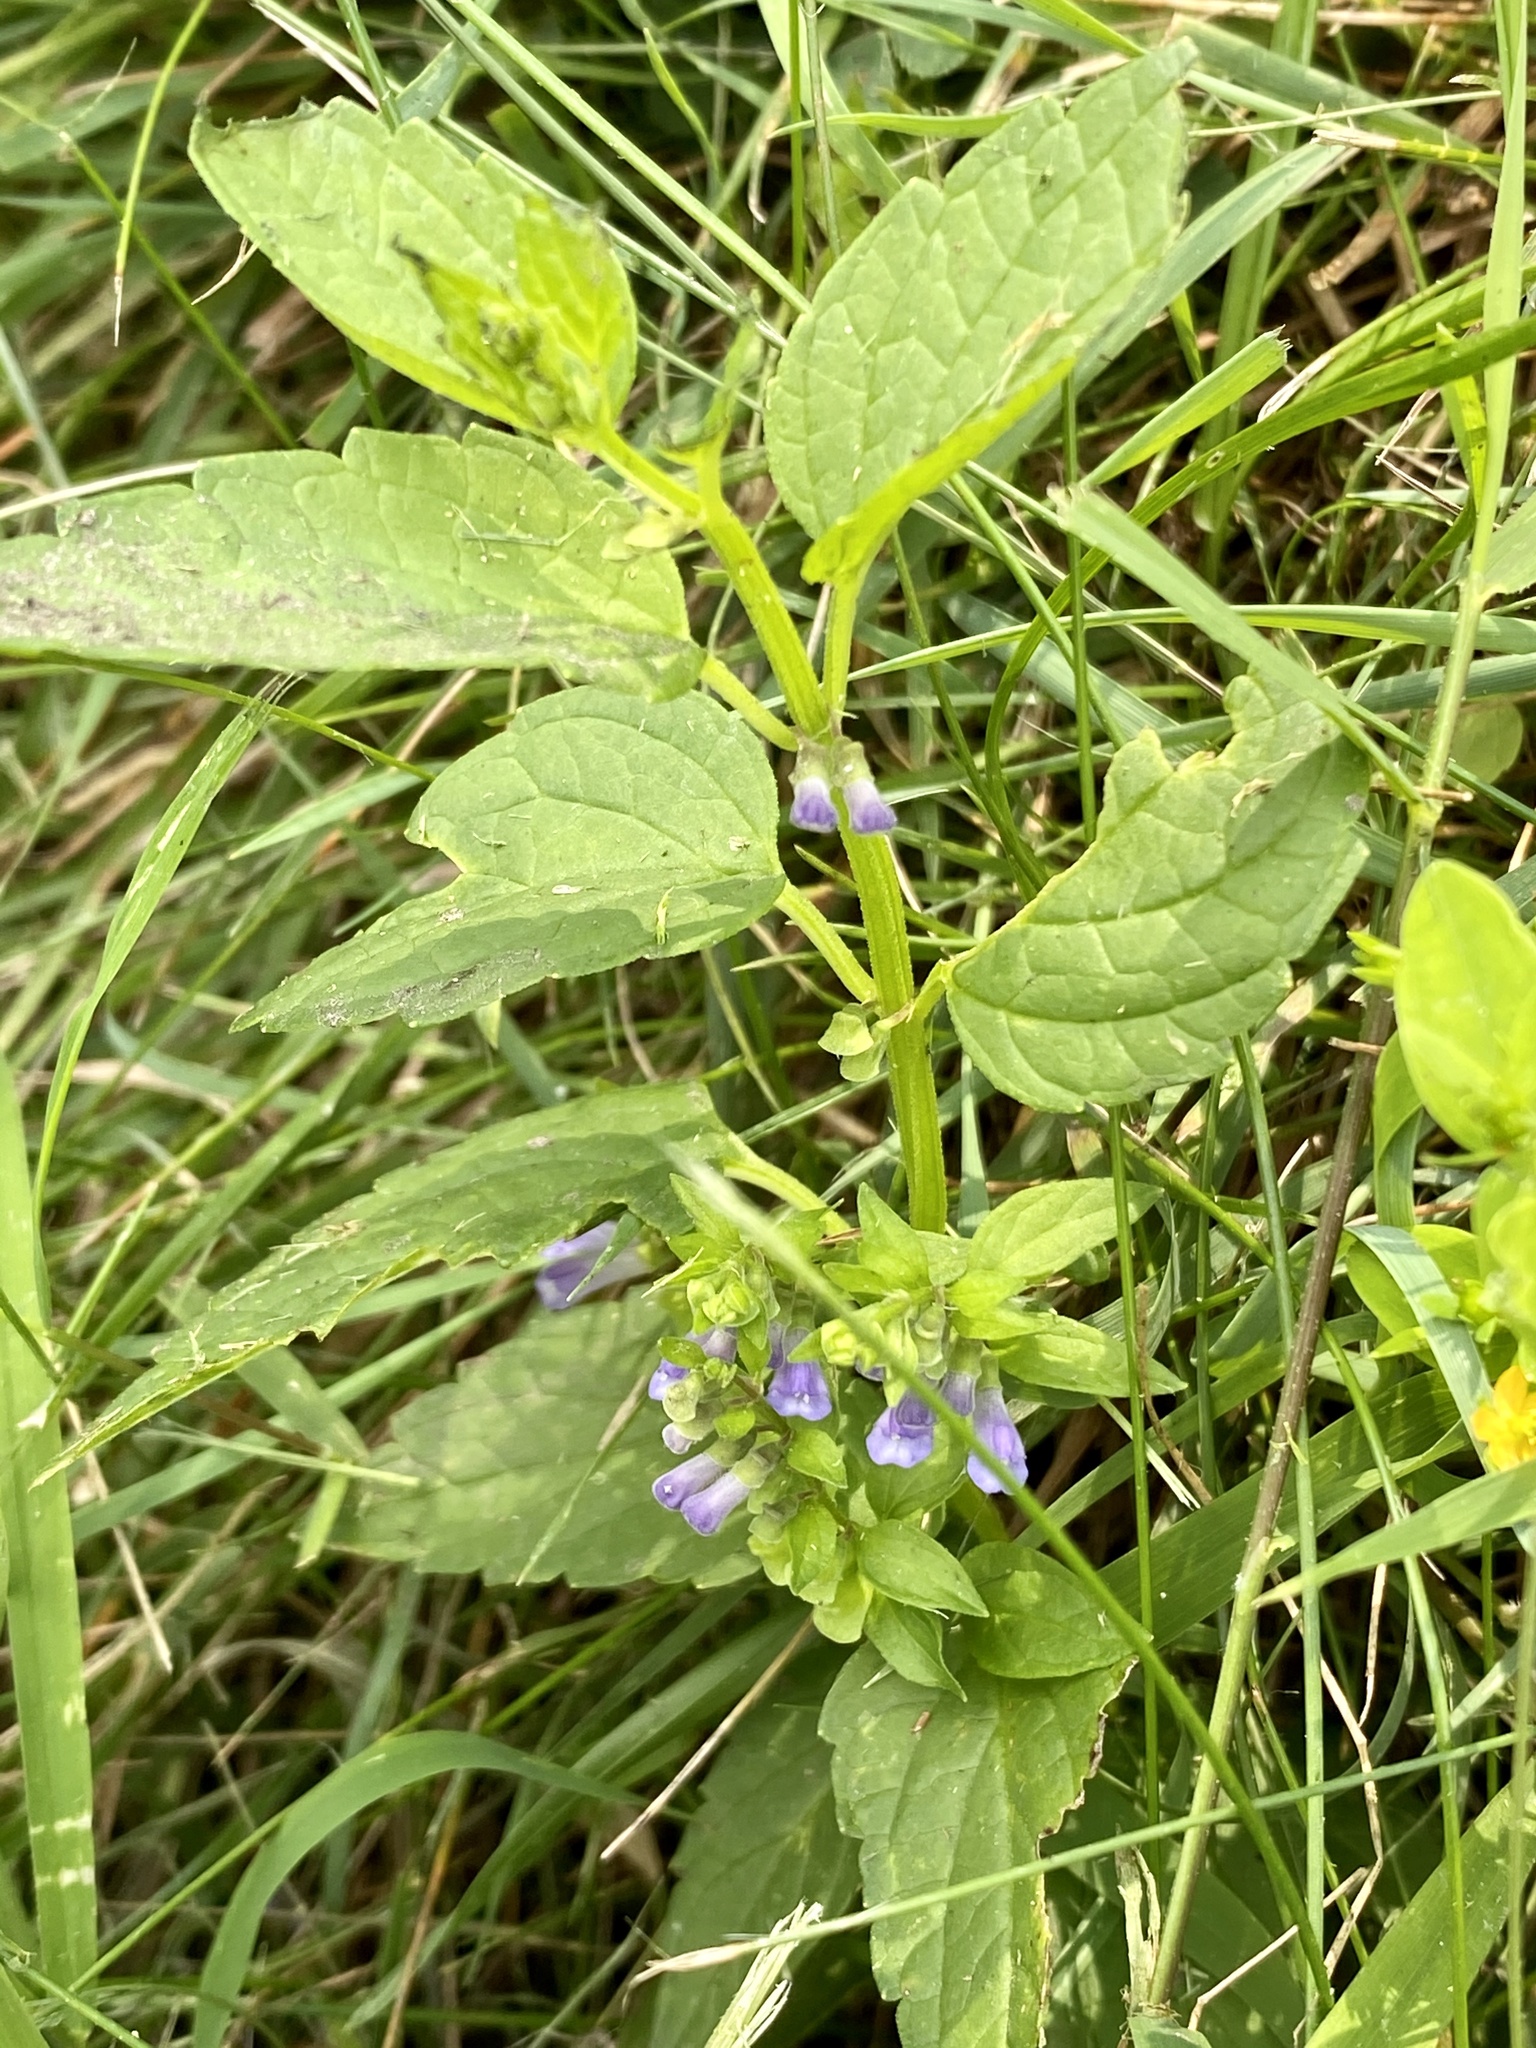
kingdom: Plantae
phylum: Tracheophyta
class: Magnoliopsida
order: Lamiales
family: Lamiaceae
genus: Scutellaria
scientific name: Scutellaria lateriflora
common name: Blue skullcap
